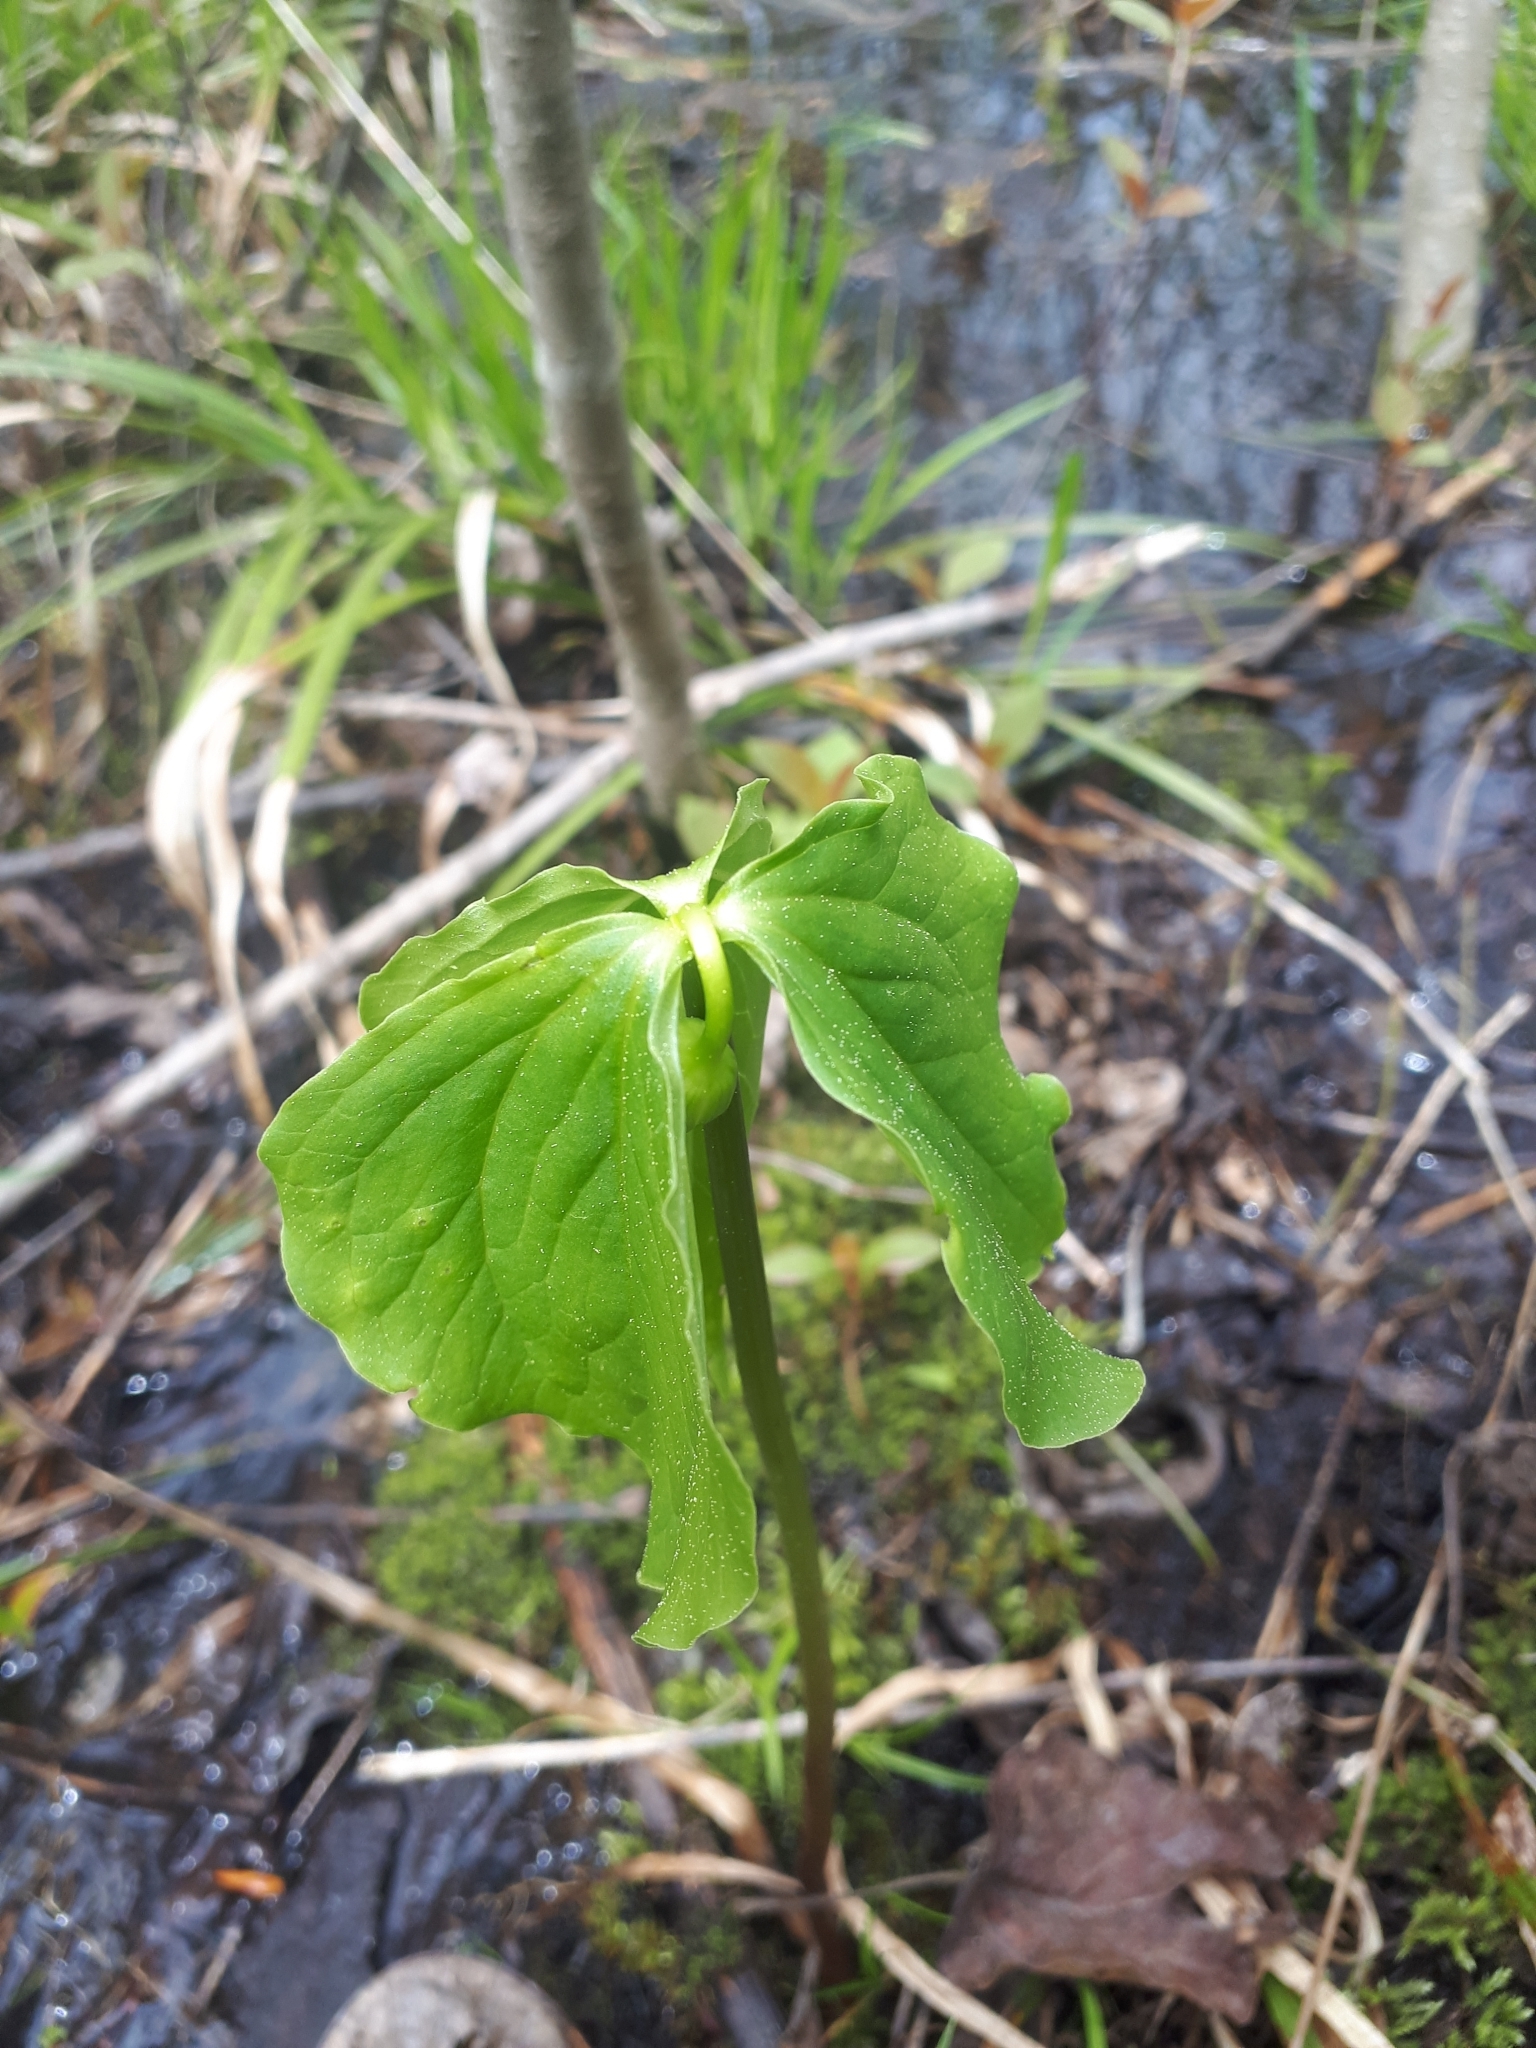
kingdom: Plantae
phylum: Tracheophyta
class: Liliopsida
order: Liliales
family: Melanthiaceae
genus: Trillium
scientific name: Trillium cernuum
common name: Nodding trillium
